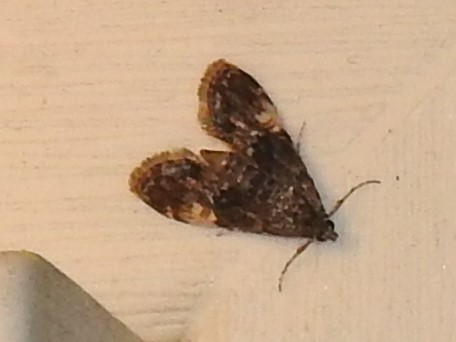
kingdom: Animalia
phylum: Arthropoda
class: Insecta
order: Lepidoptera
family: Crambidae
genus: Elophila
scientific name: Elophila obliteralis
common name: Waterlily leafcutter moth
